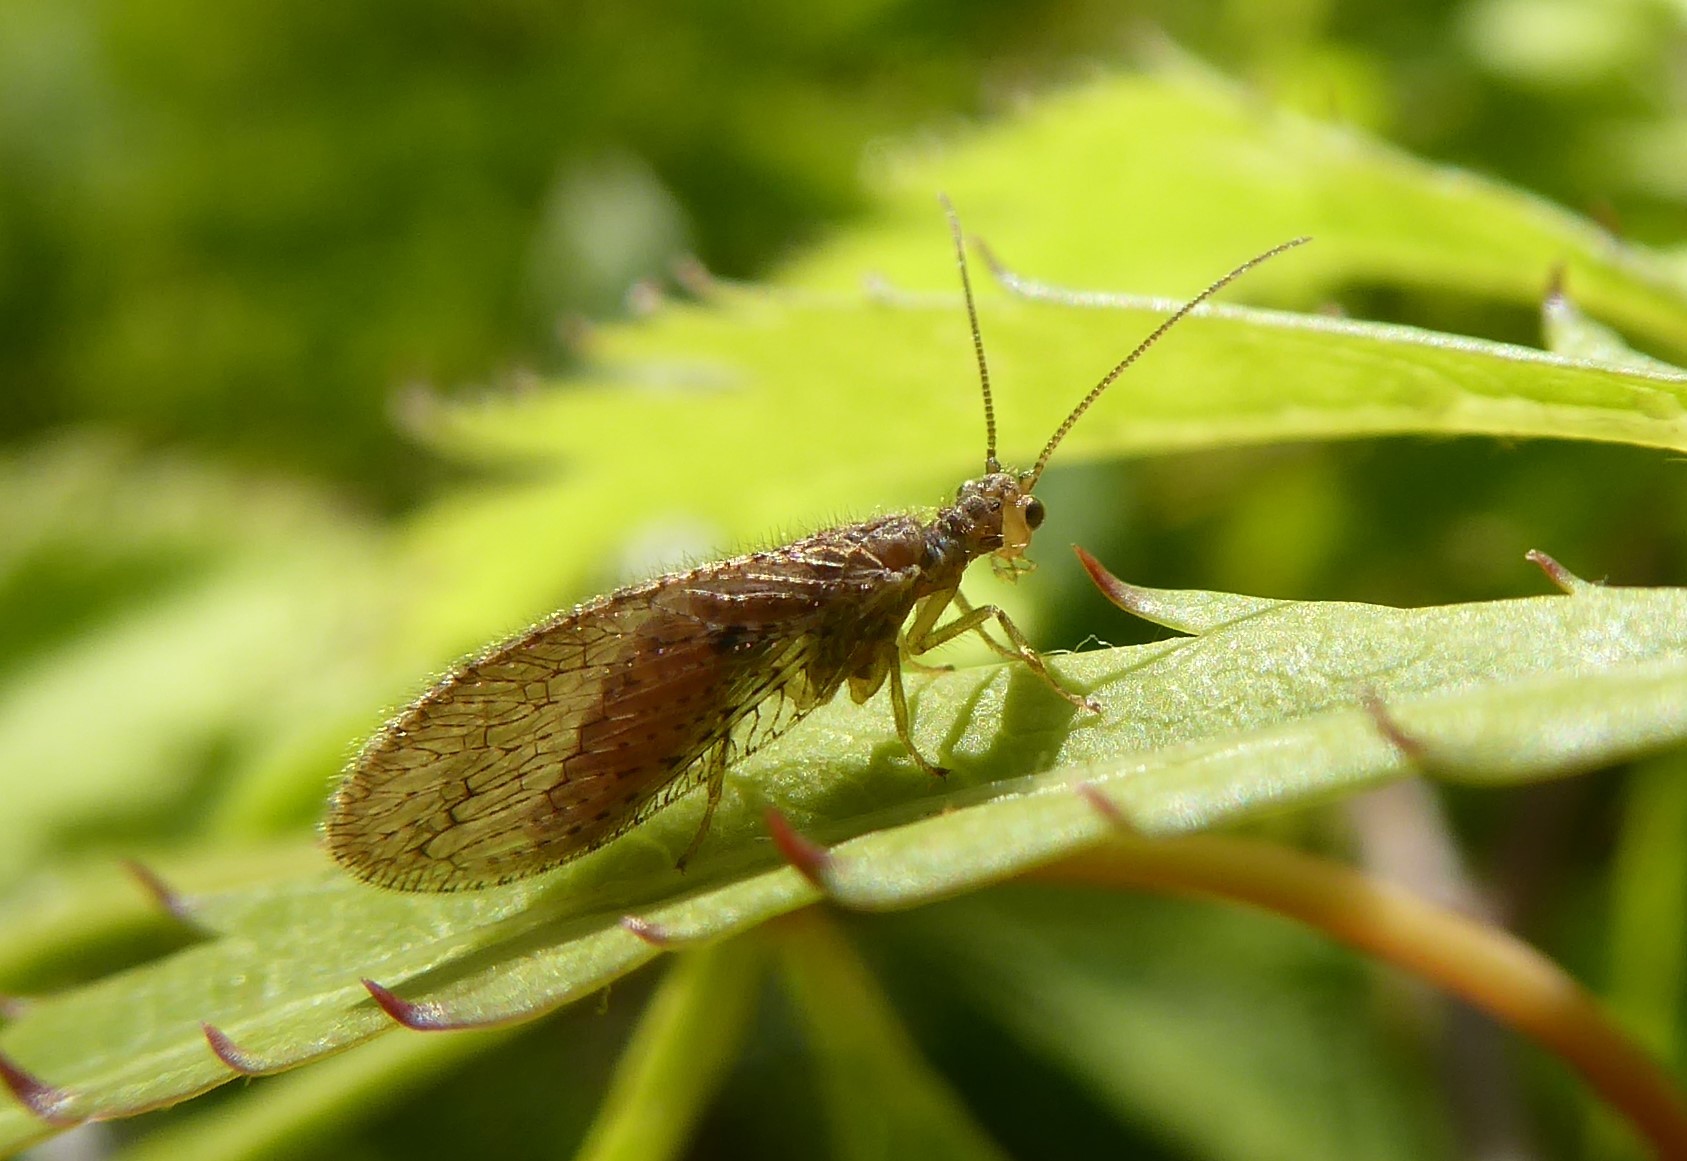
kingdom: Animalia
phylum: Arthropoda
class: Insecta
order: Neuroptera
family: Hemerobiidae
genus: Micromus
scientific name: Micromus tasmaniae
